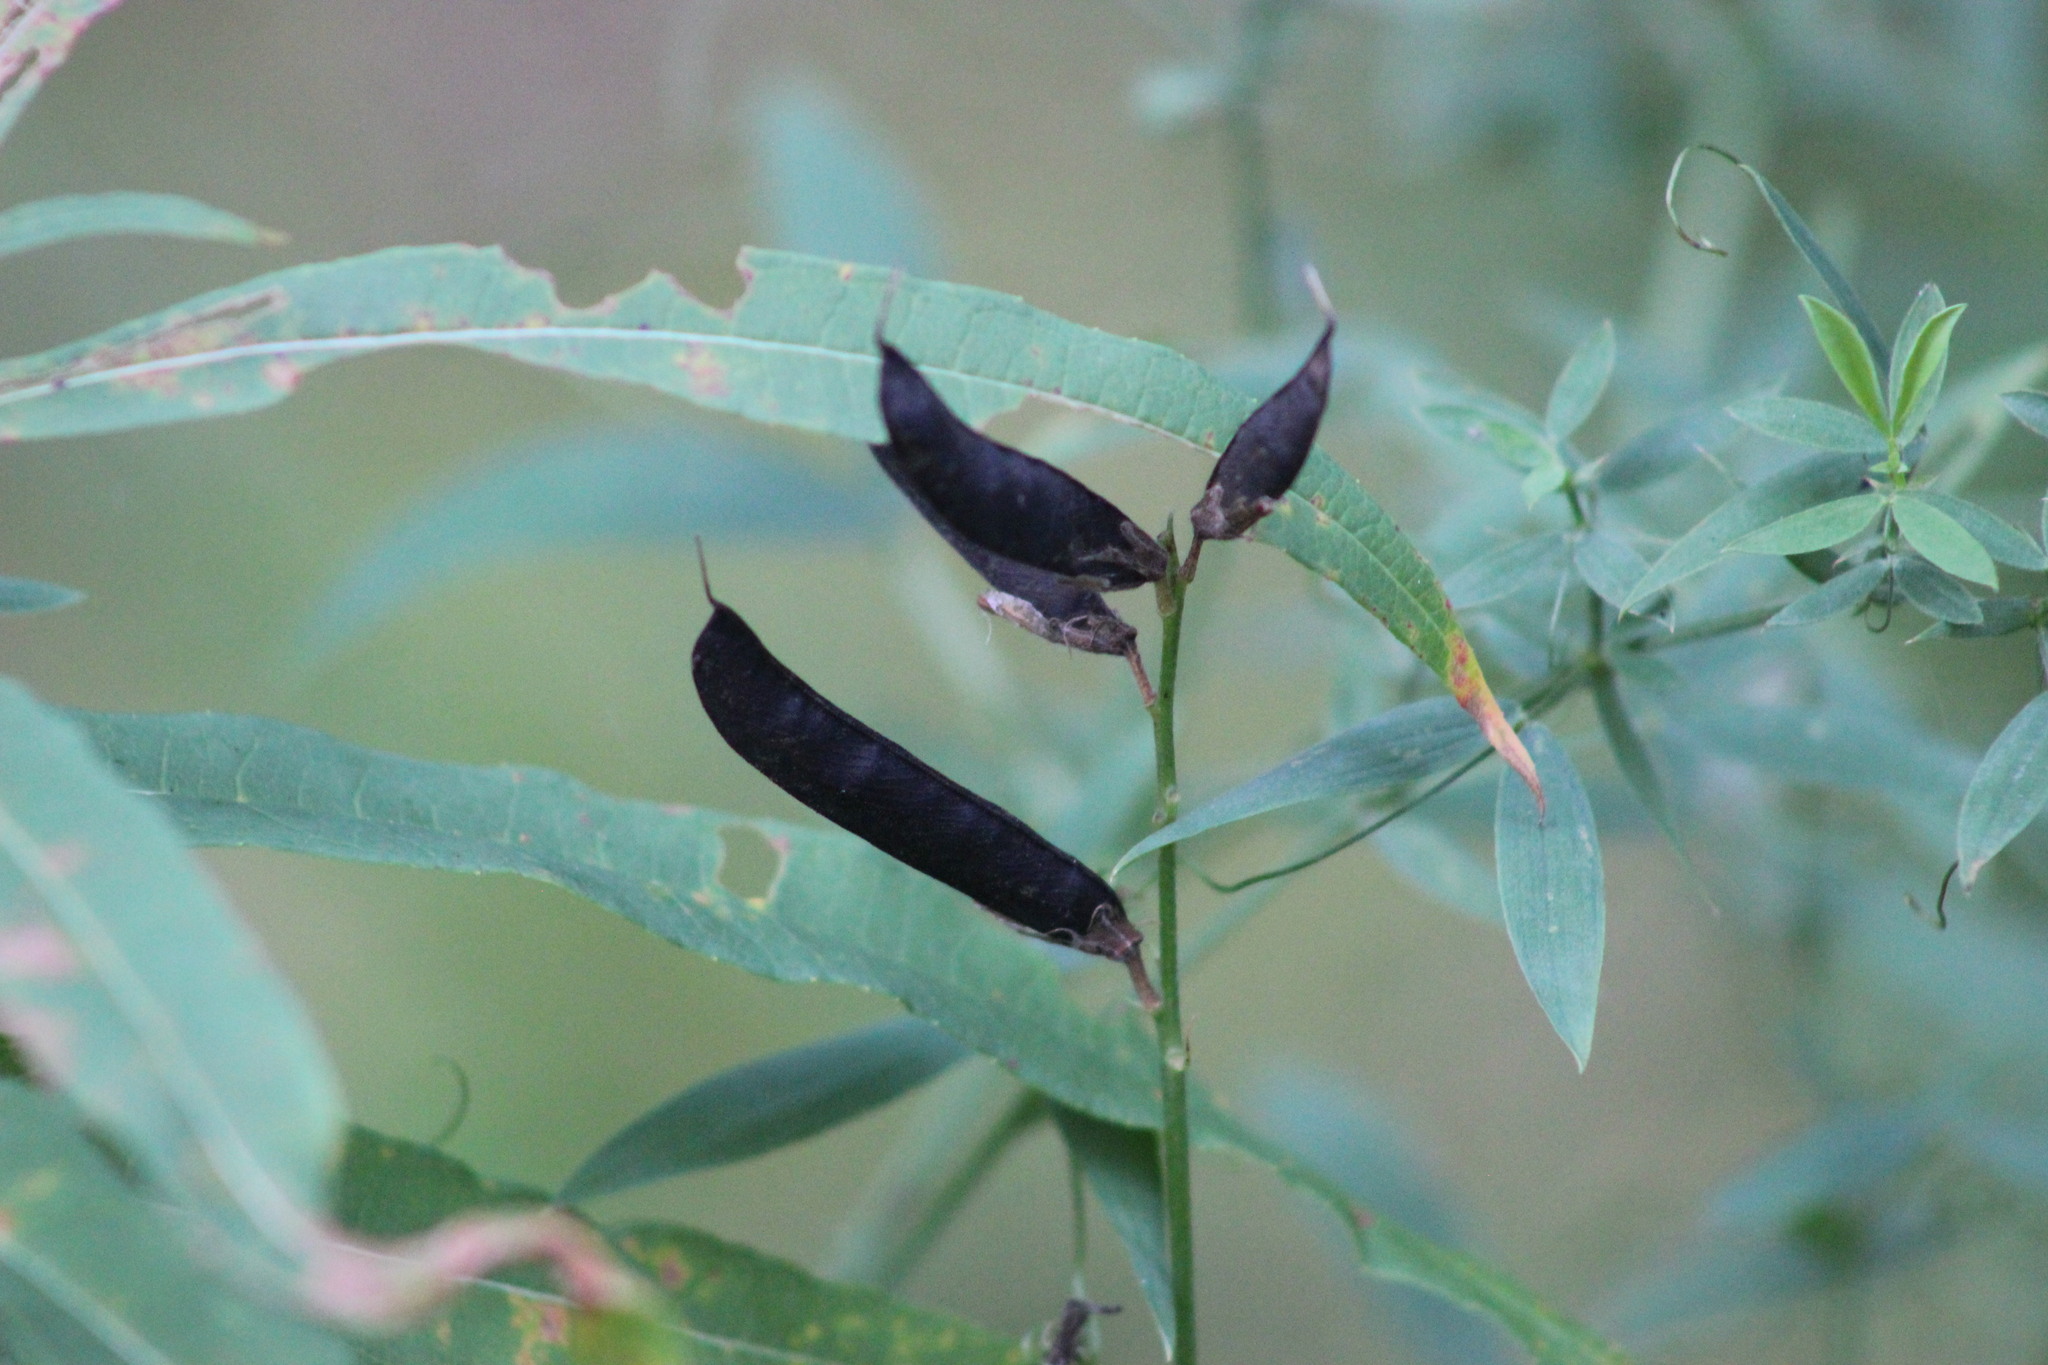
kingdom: Plantae
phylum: Tracheophyta
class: Magnoliopsida
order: Fabales
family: Fabaceae
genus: Lathyrus
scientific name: Lathyrus pratensis
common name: Meadow vetchling
